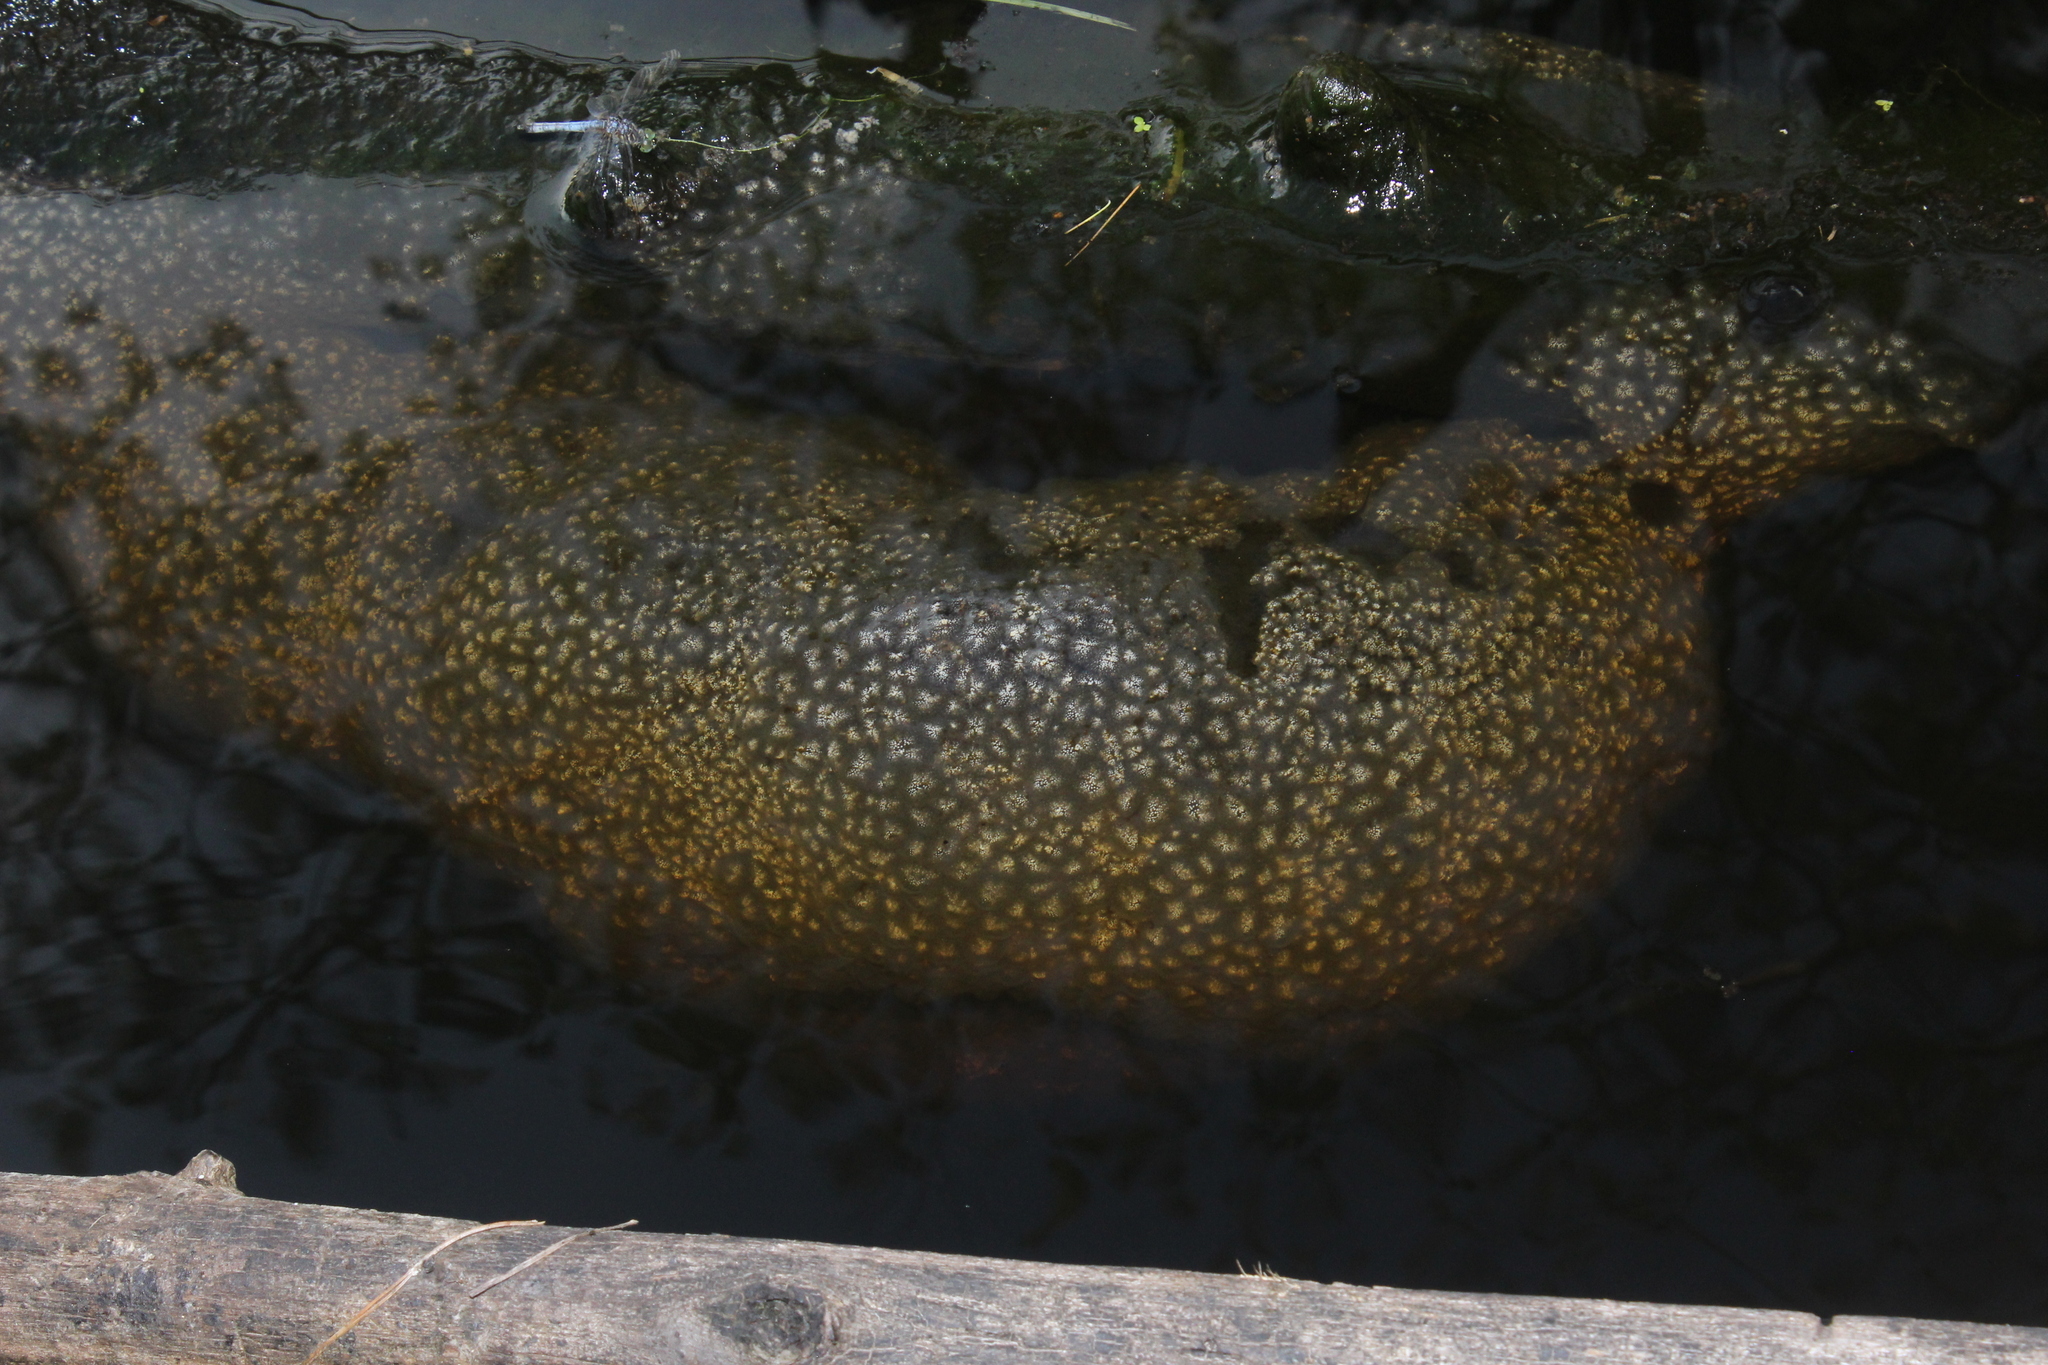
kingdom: Animalia
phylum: Bryozoa
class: Phylactolaemata
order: Plumatellida
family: Pectinatellidae
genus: Pectinatella
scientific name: Pectinatella magnifica
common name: Magnificent bryozoan
